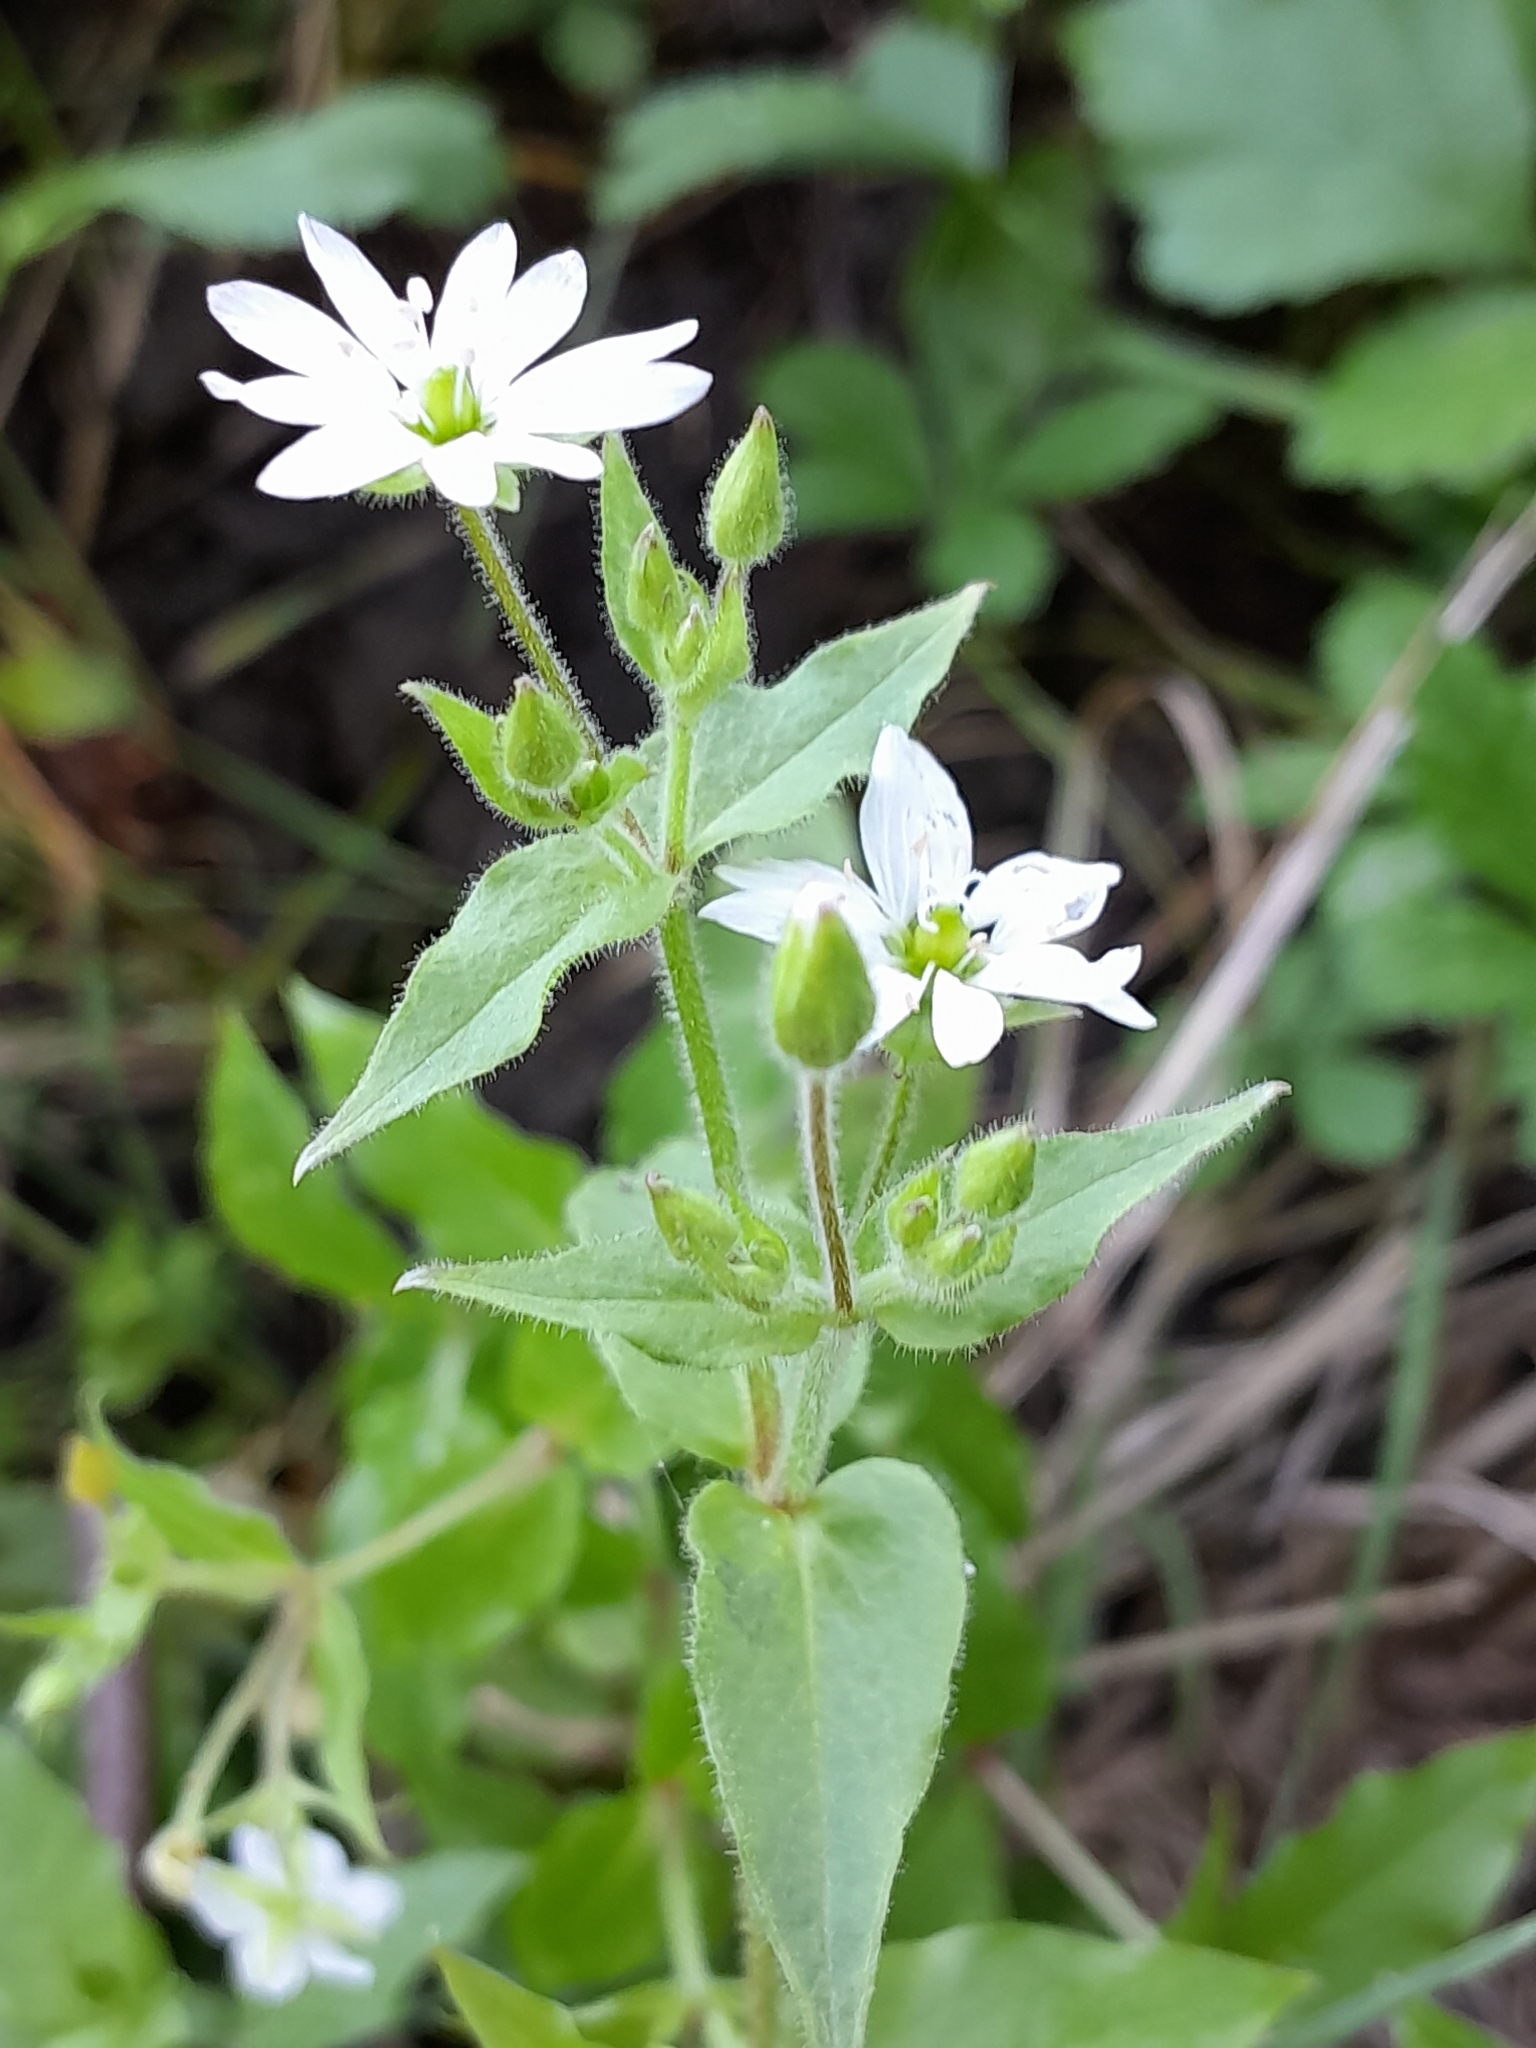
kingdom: Plantae
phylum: Tracheophyta
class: Magnoliopsida
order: Caryophyllales
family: Caryophyllaceae
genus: Stellaria
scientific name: Stellaria aquatica
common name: Water chickweed
